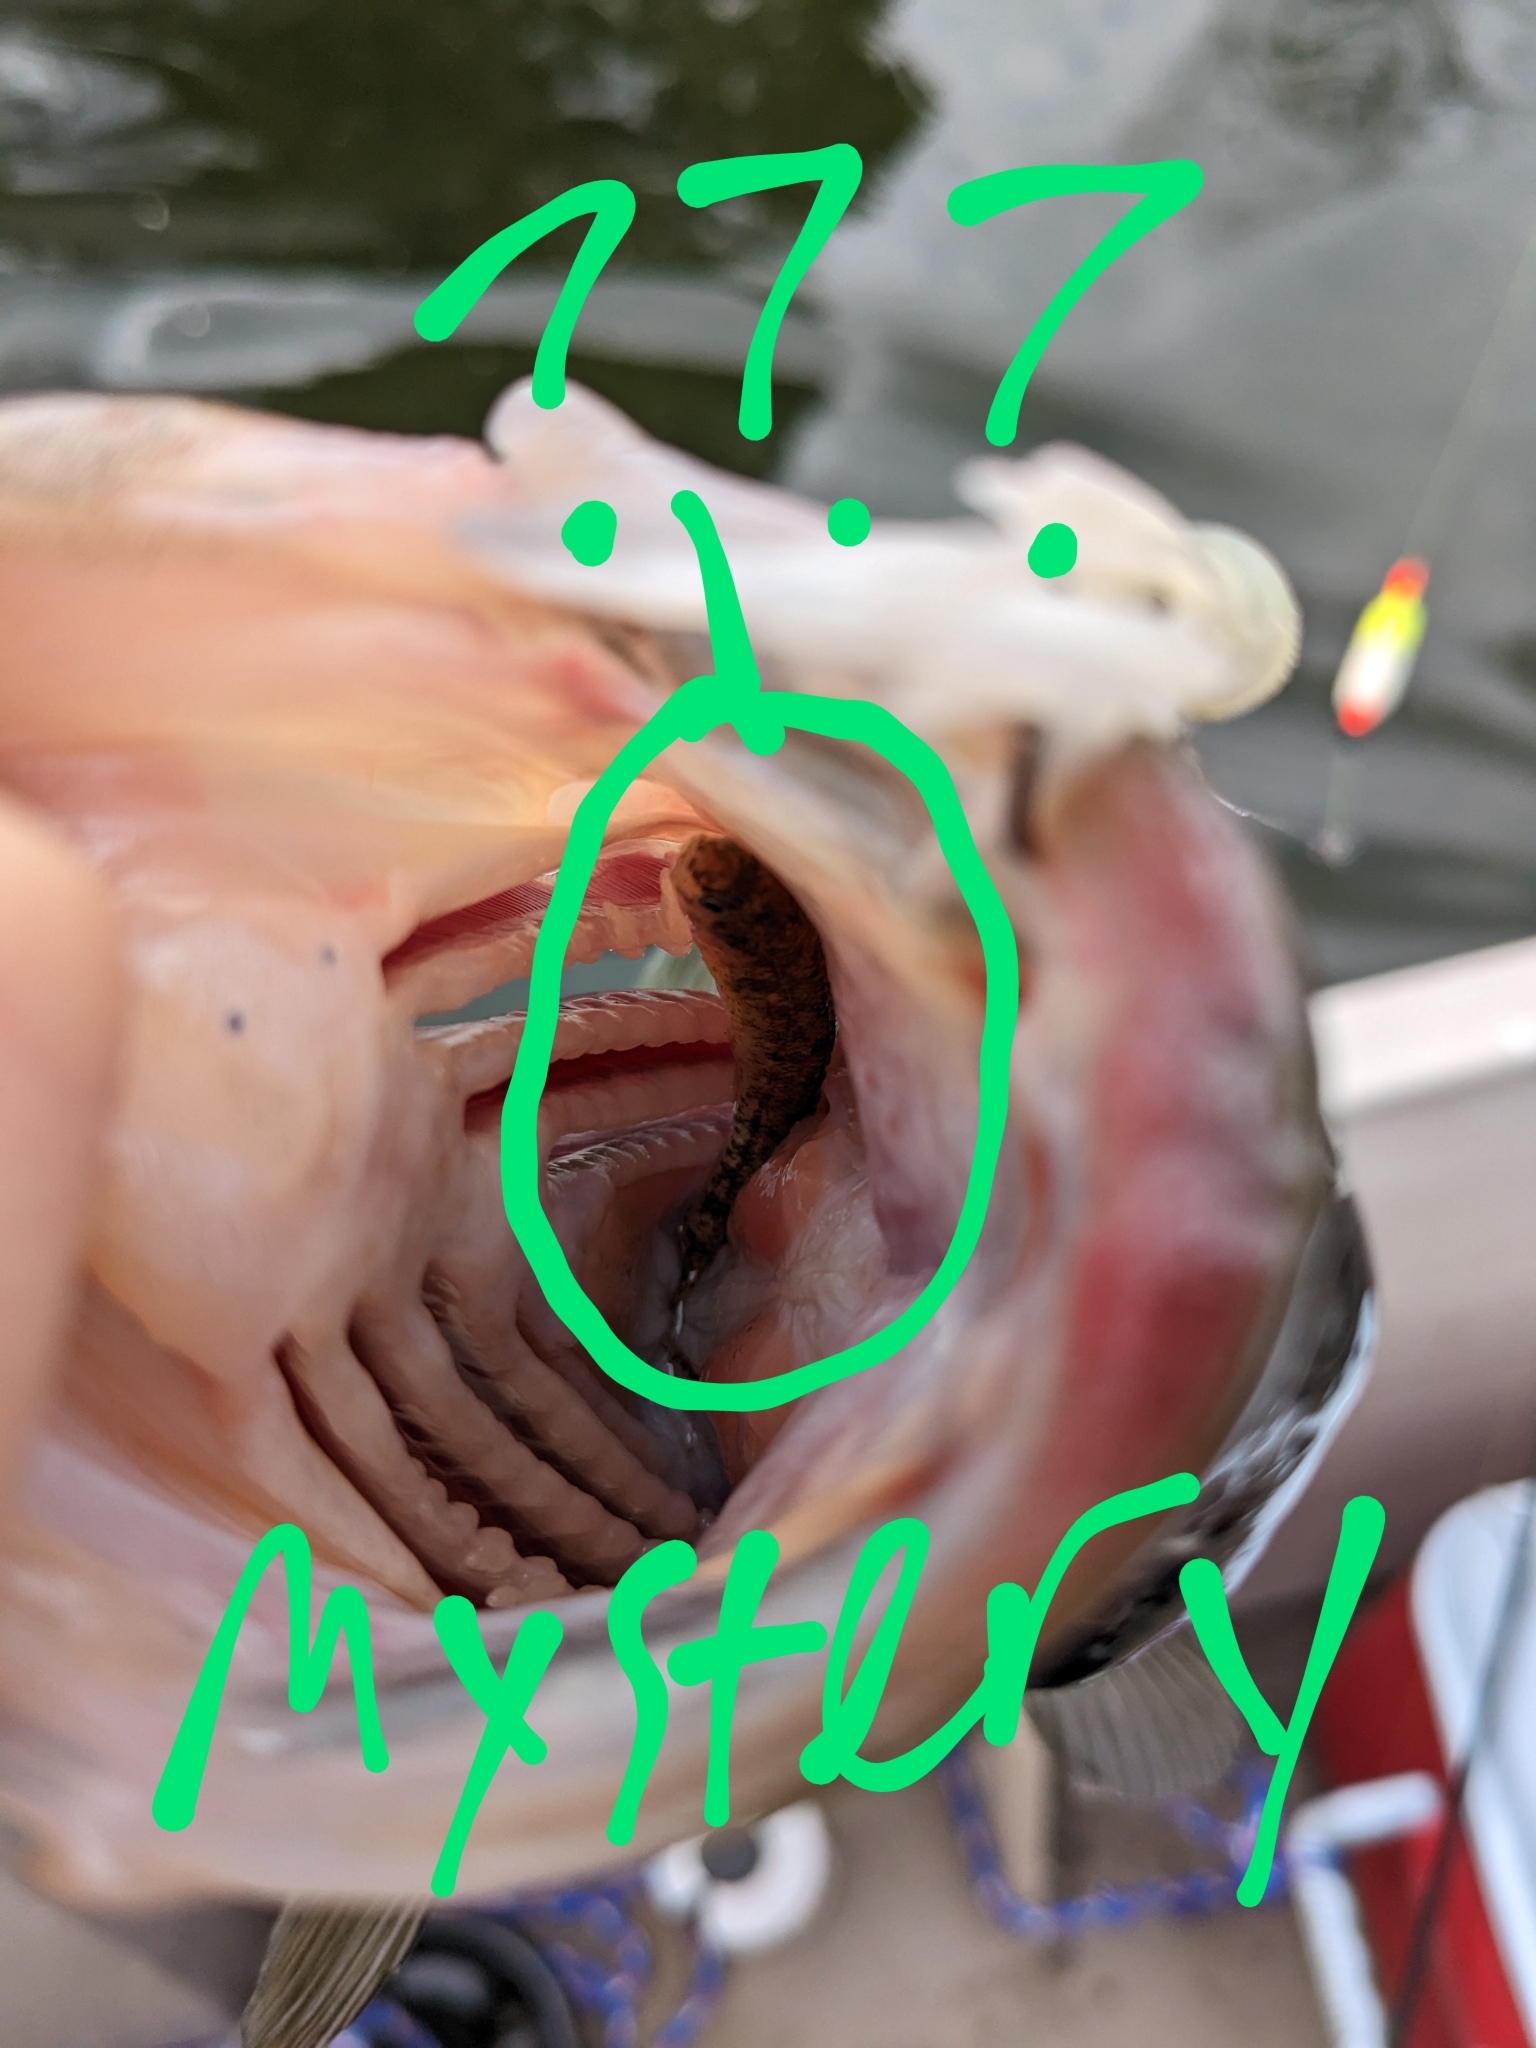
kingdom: Animalia
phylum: Chordata
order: Perciformes
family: Percidae
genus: Etheostoma
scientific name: Etheostoma exile
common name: Iowa darter
